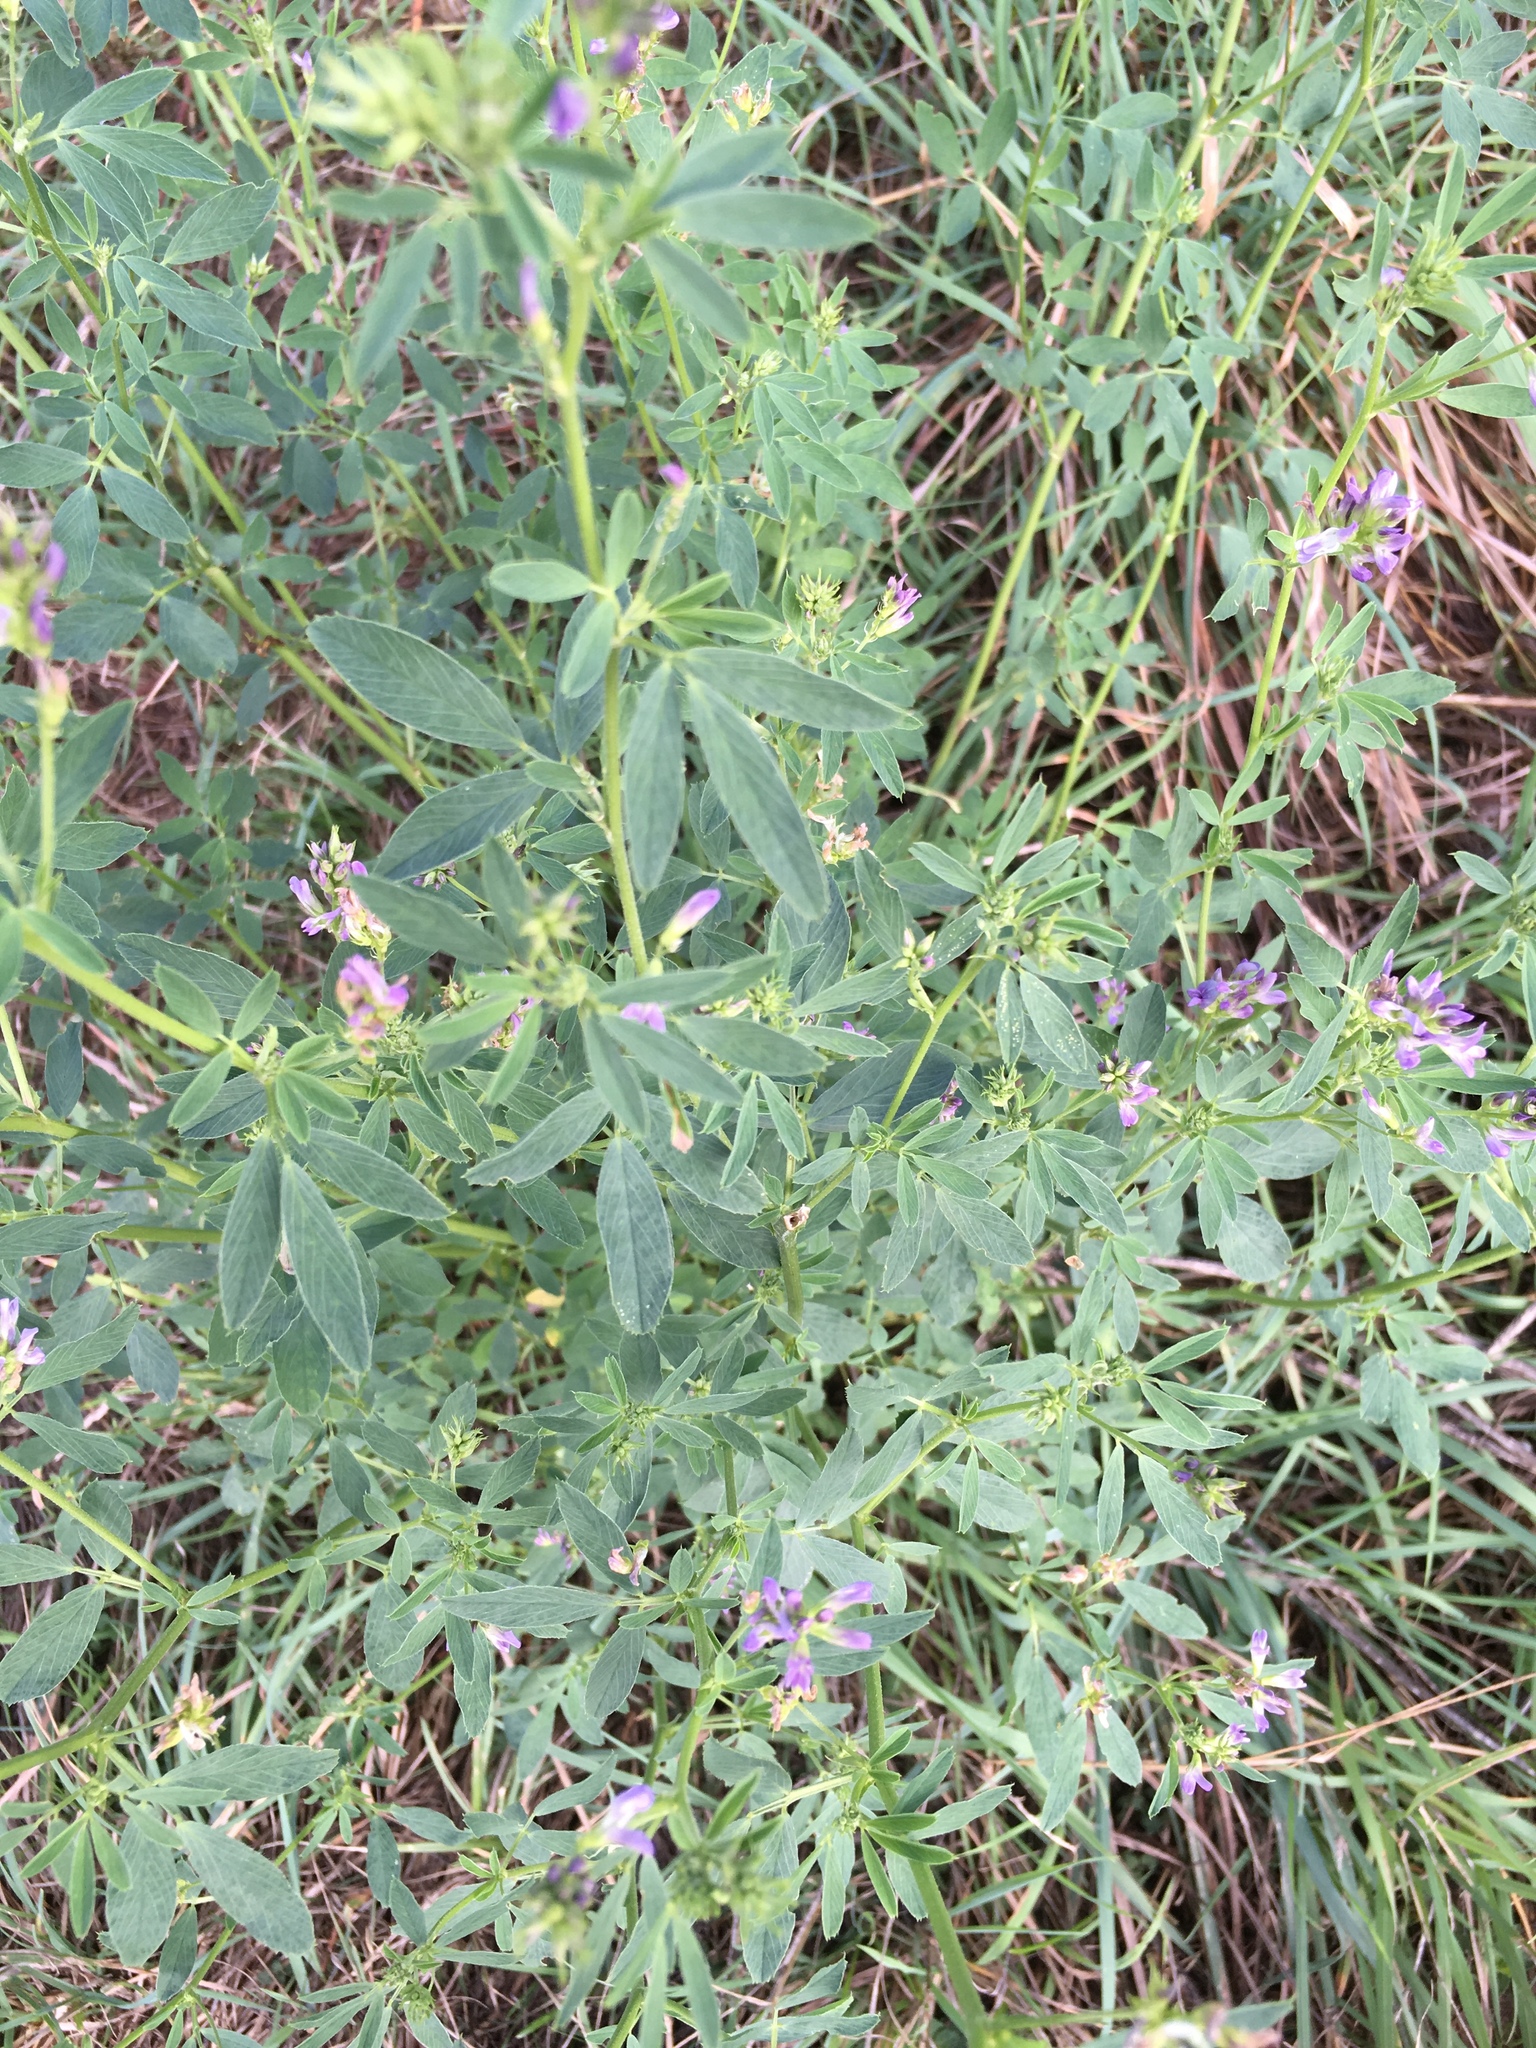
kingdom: Plantae
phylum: Tracheophyta
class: Magnoliopsida
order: Fabales
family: Fabaceae
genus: Medicago
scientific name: Medicago sativa
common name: Alfalfa
